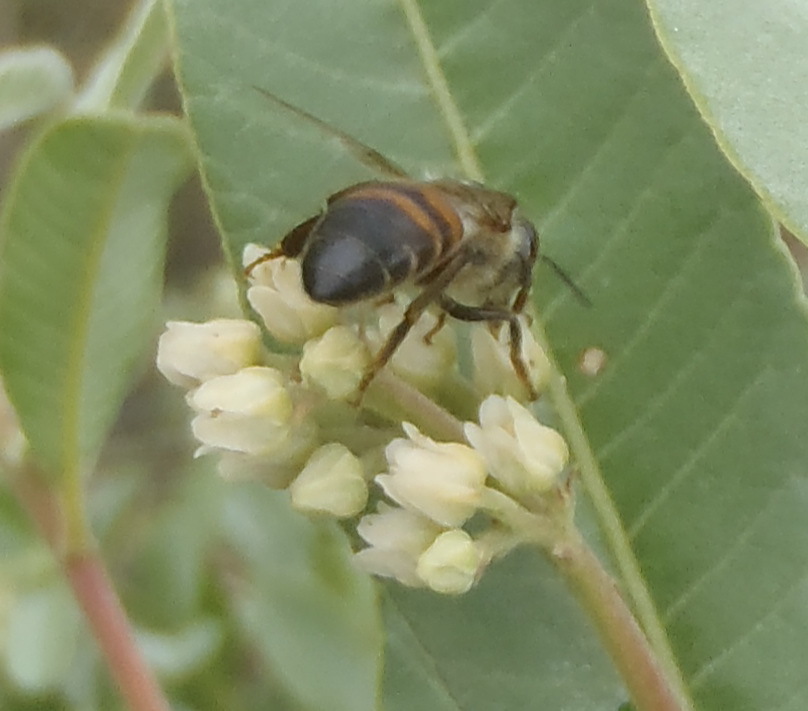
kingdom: Animalia
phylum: Arthropoda
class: Insecta
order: Hymenoptera
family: Apidae
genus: Apis
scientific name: Apis mellifera
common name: Honey bee
